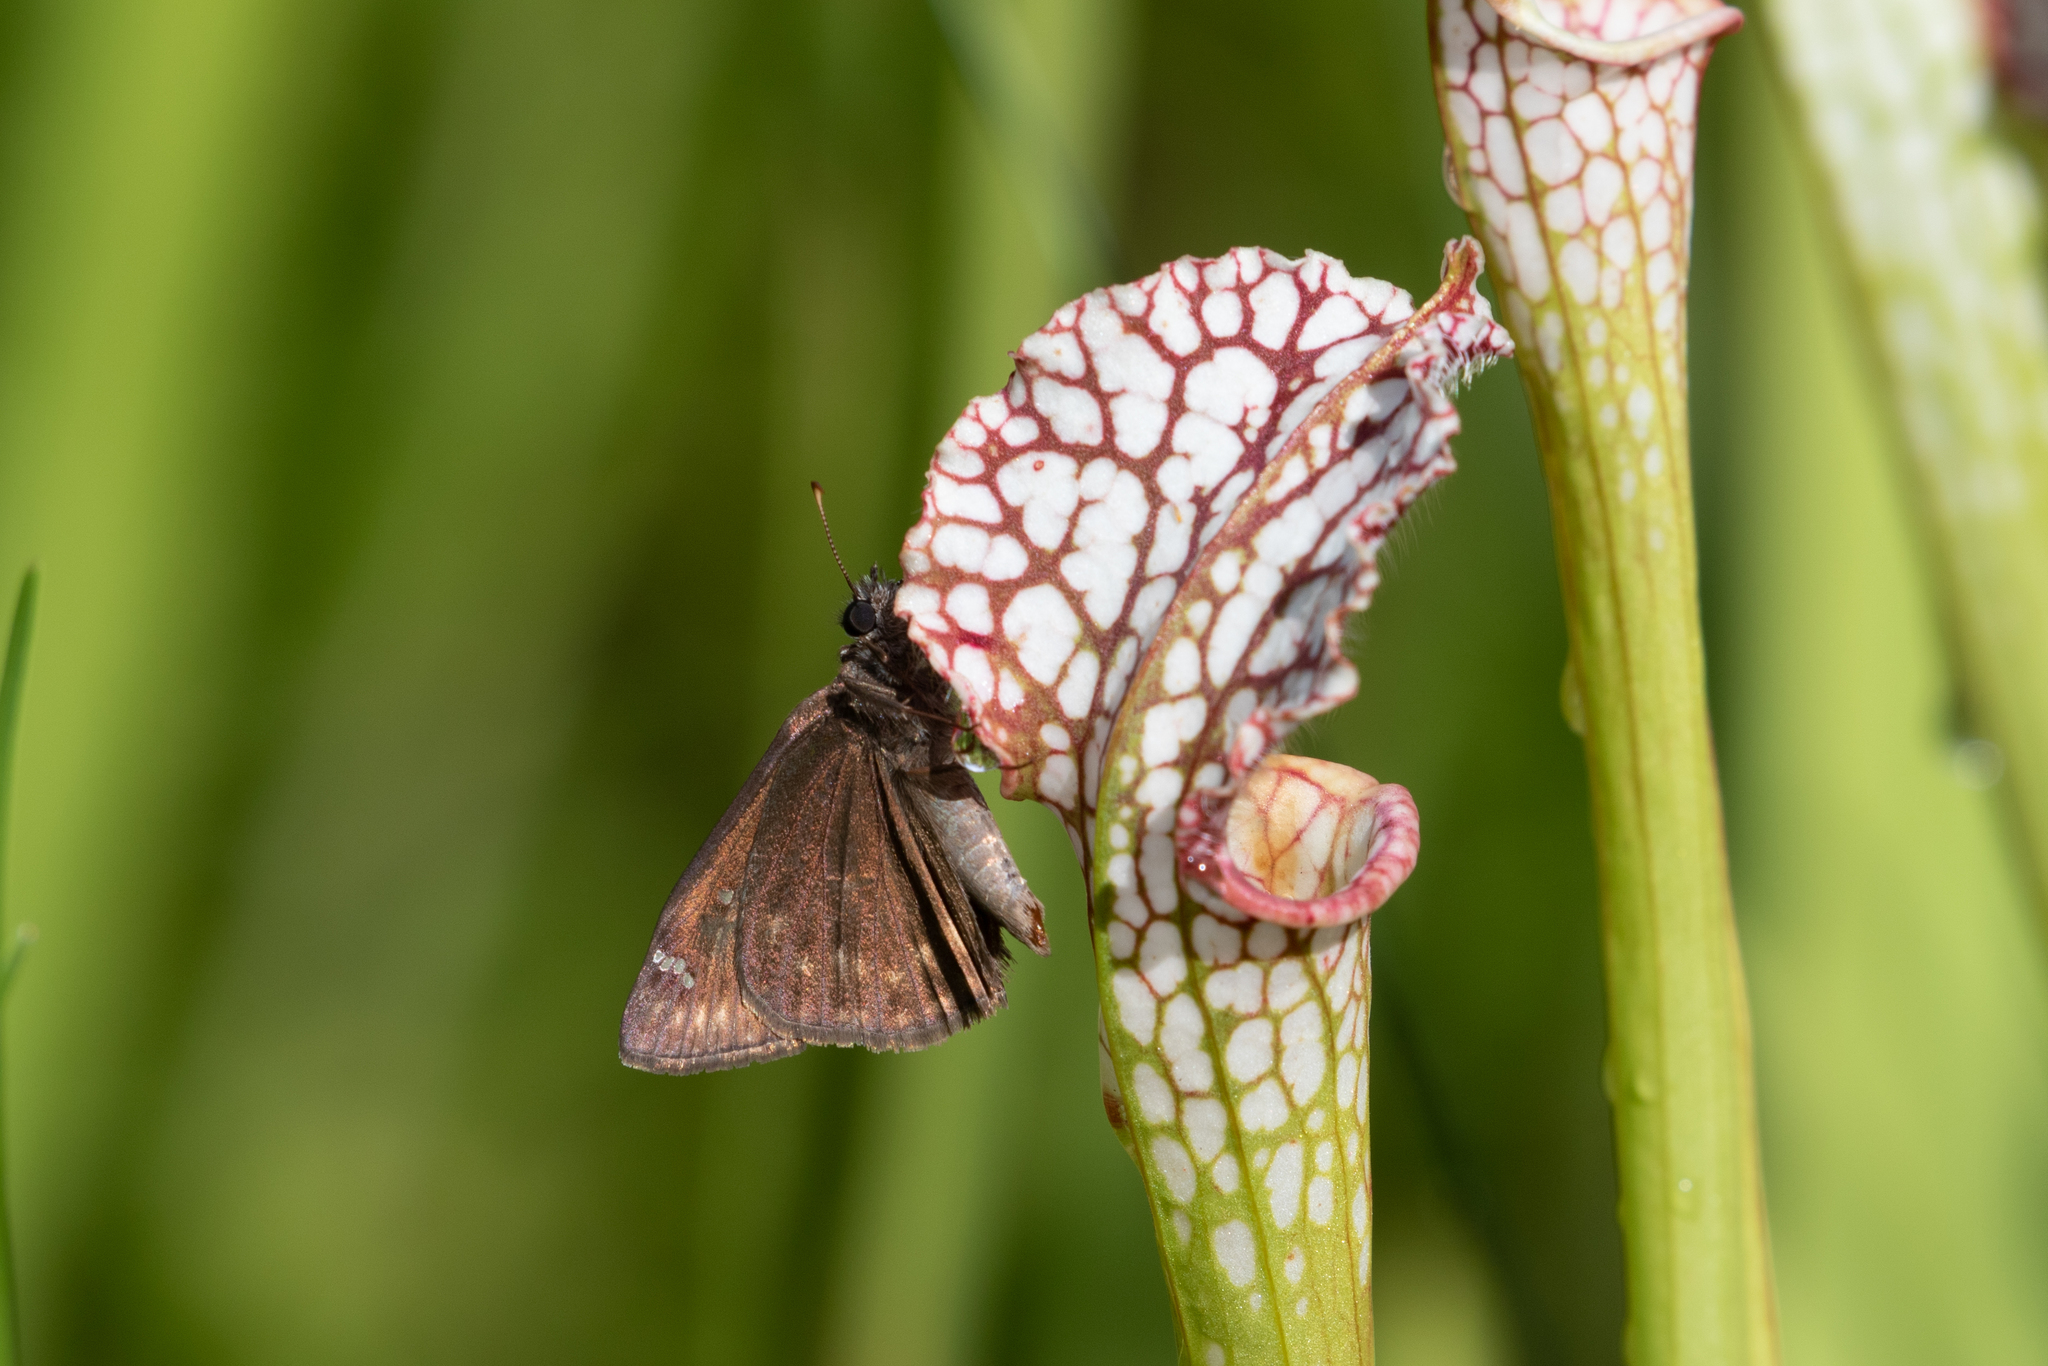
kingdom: Animalia
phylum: Arthropoda
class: Insecta
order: Lepidoptera
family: Hesperiidae
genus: Erynnis
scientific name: Erynnis horatius
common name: Horace's duskywing
